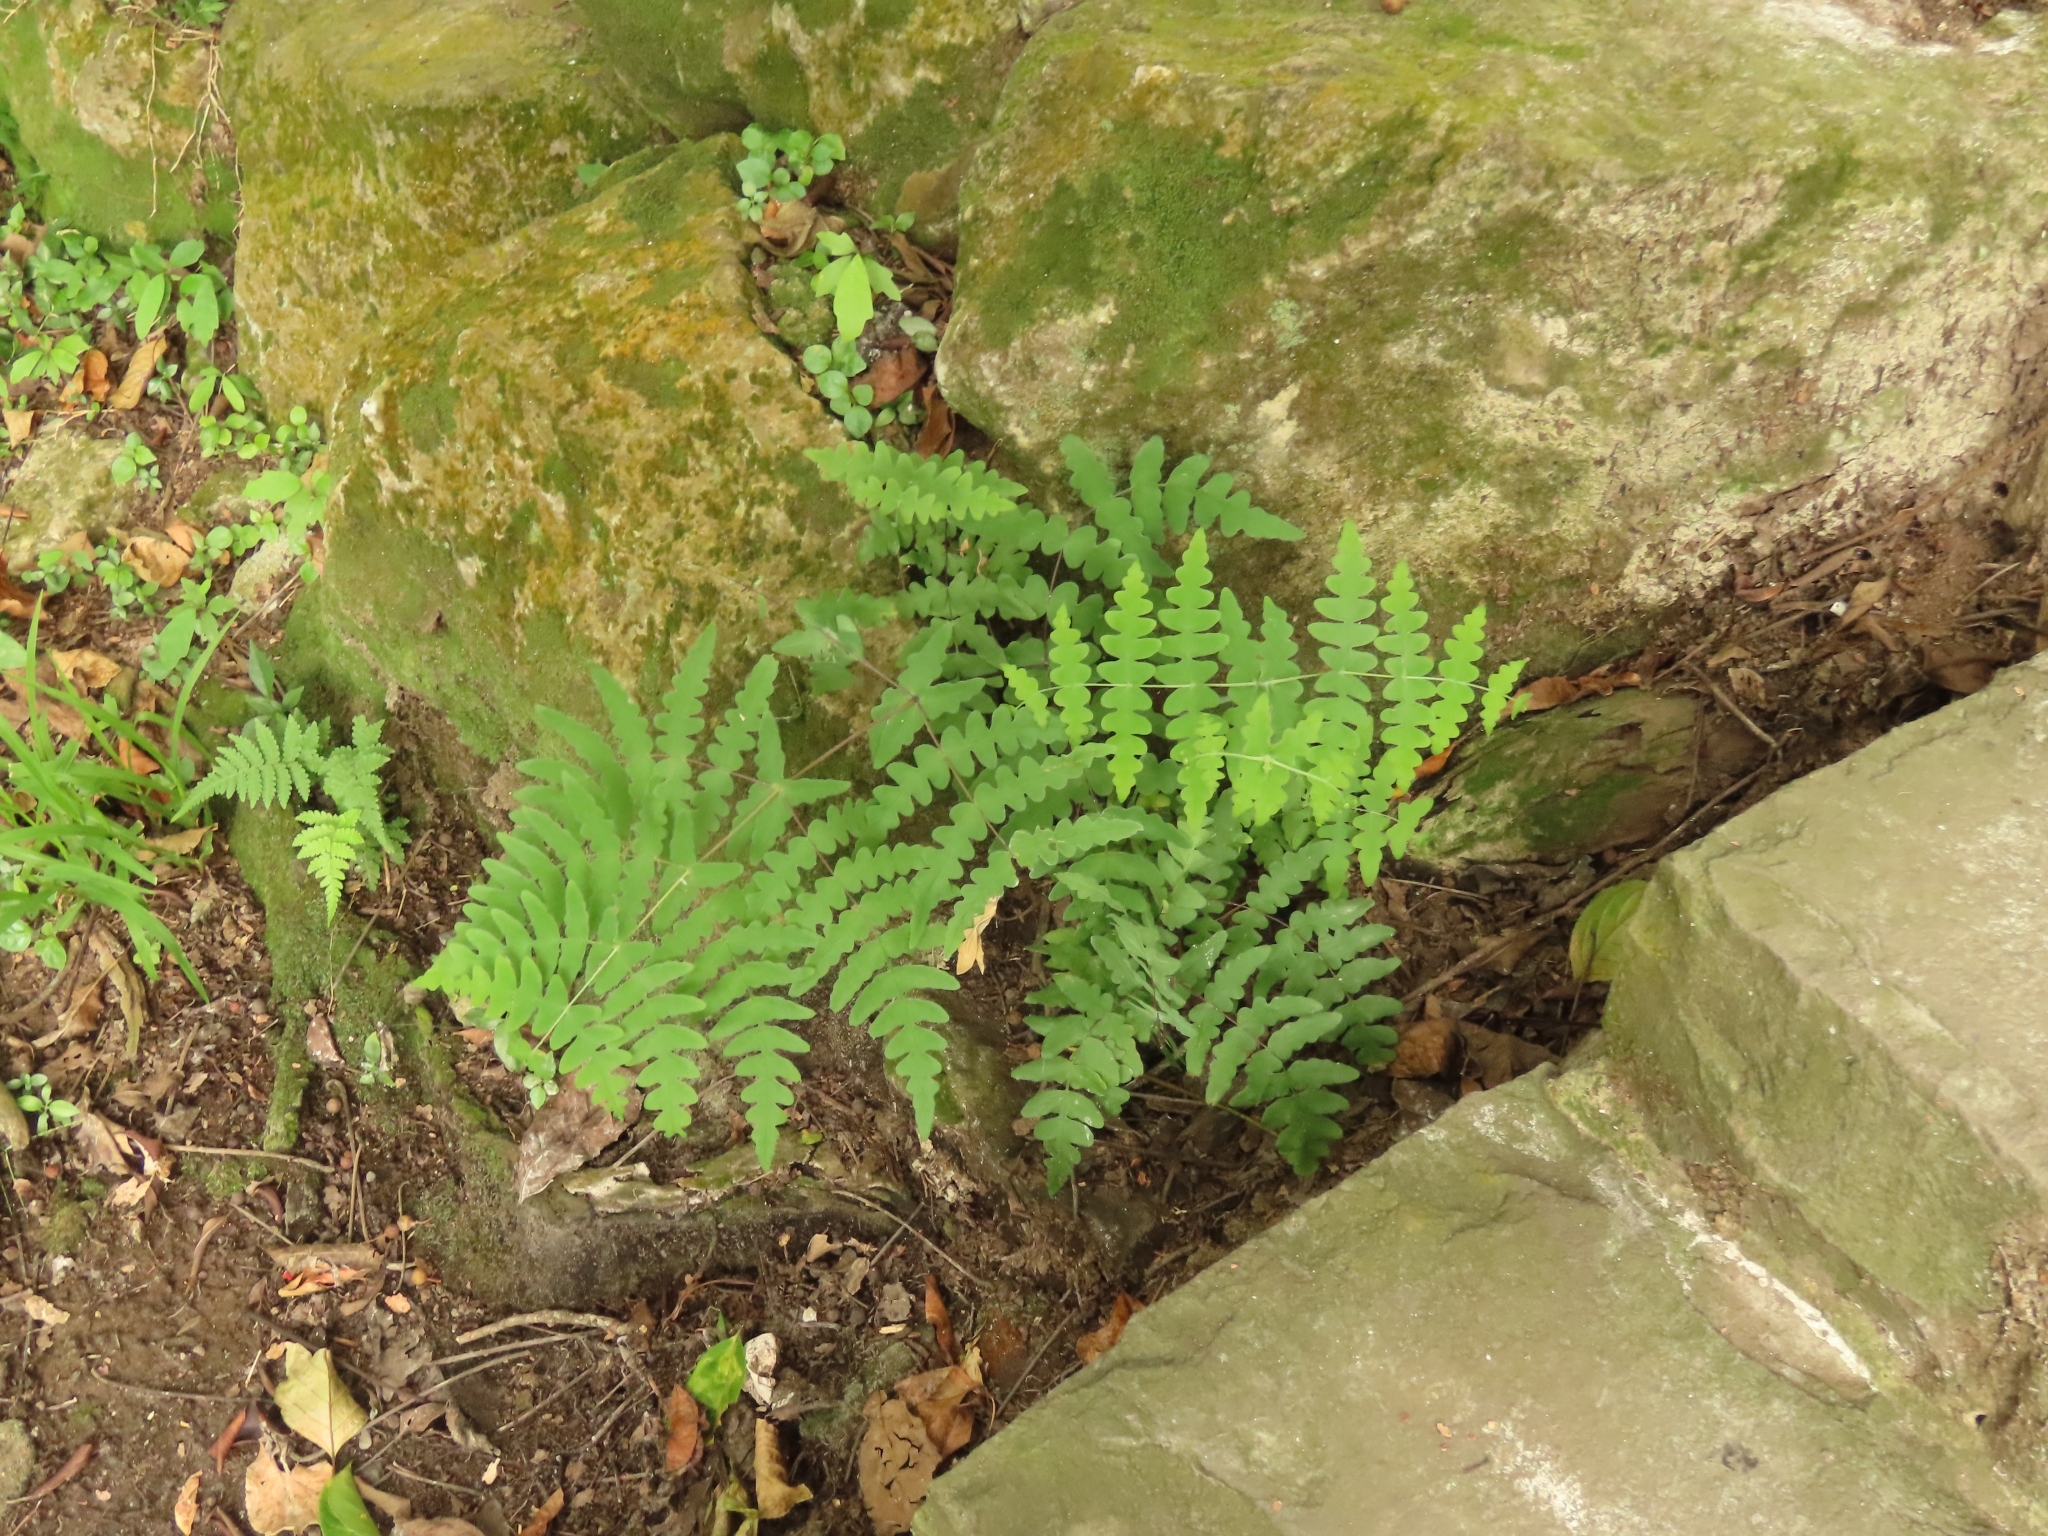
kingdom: Plantae
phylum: Tracheophyta
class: Polypodiopsida
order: Polypodiales
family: Dennstaedtiaceae
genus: Histiopteris
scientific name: Histiopteris incisa
